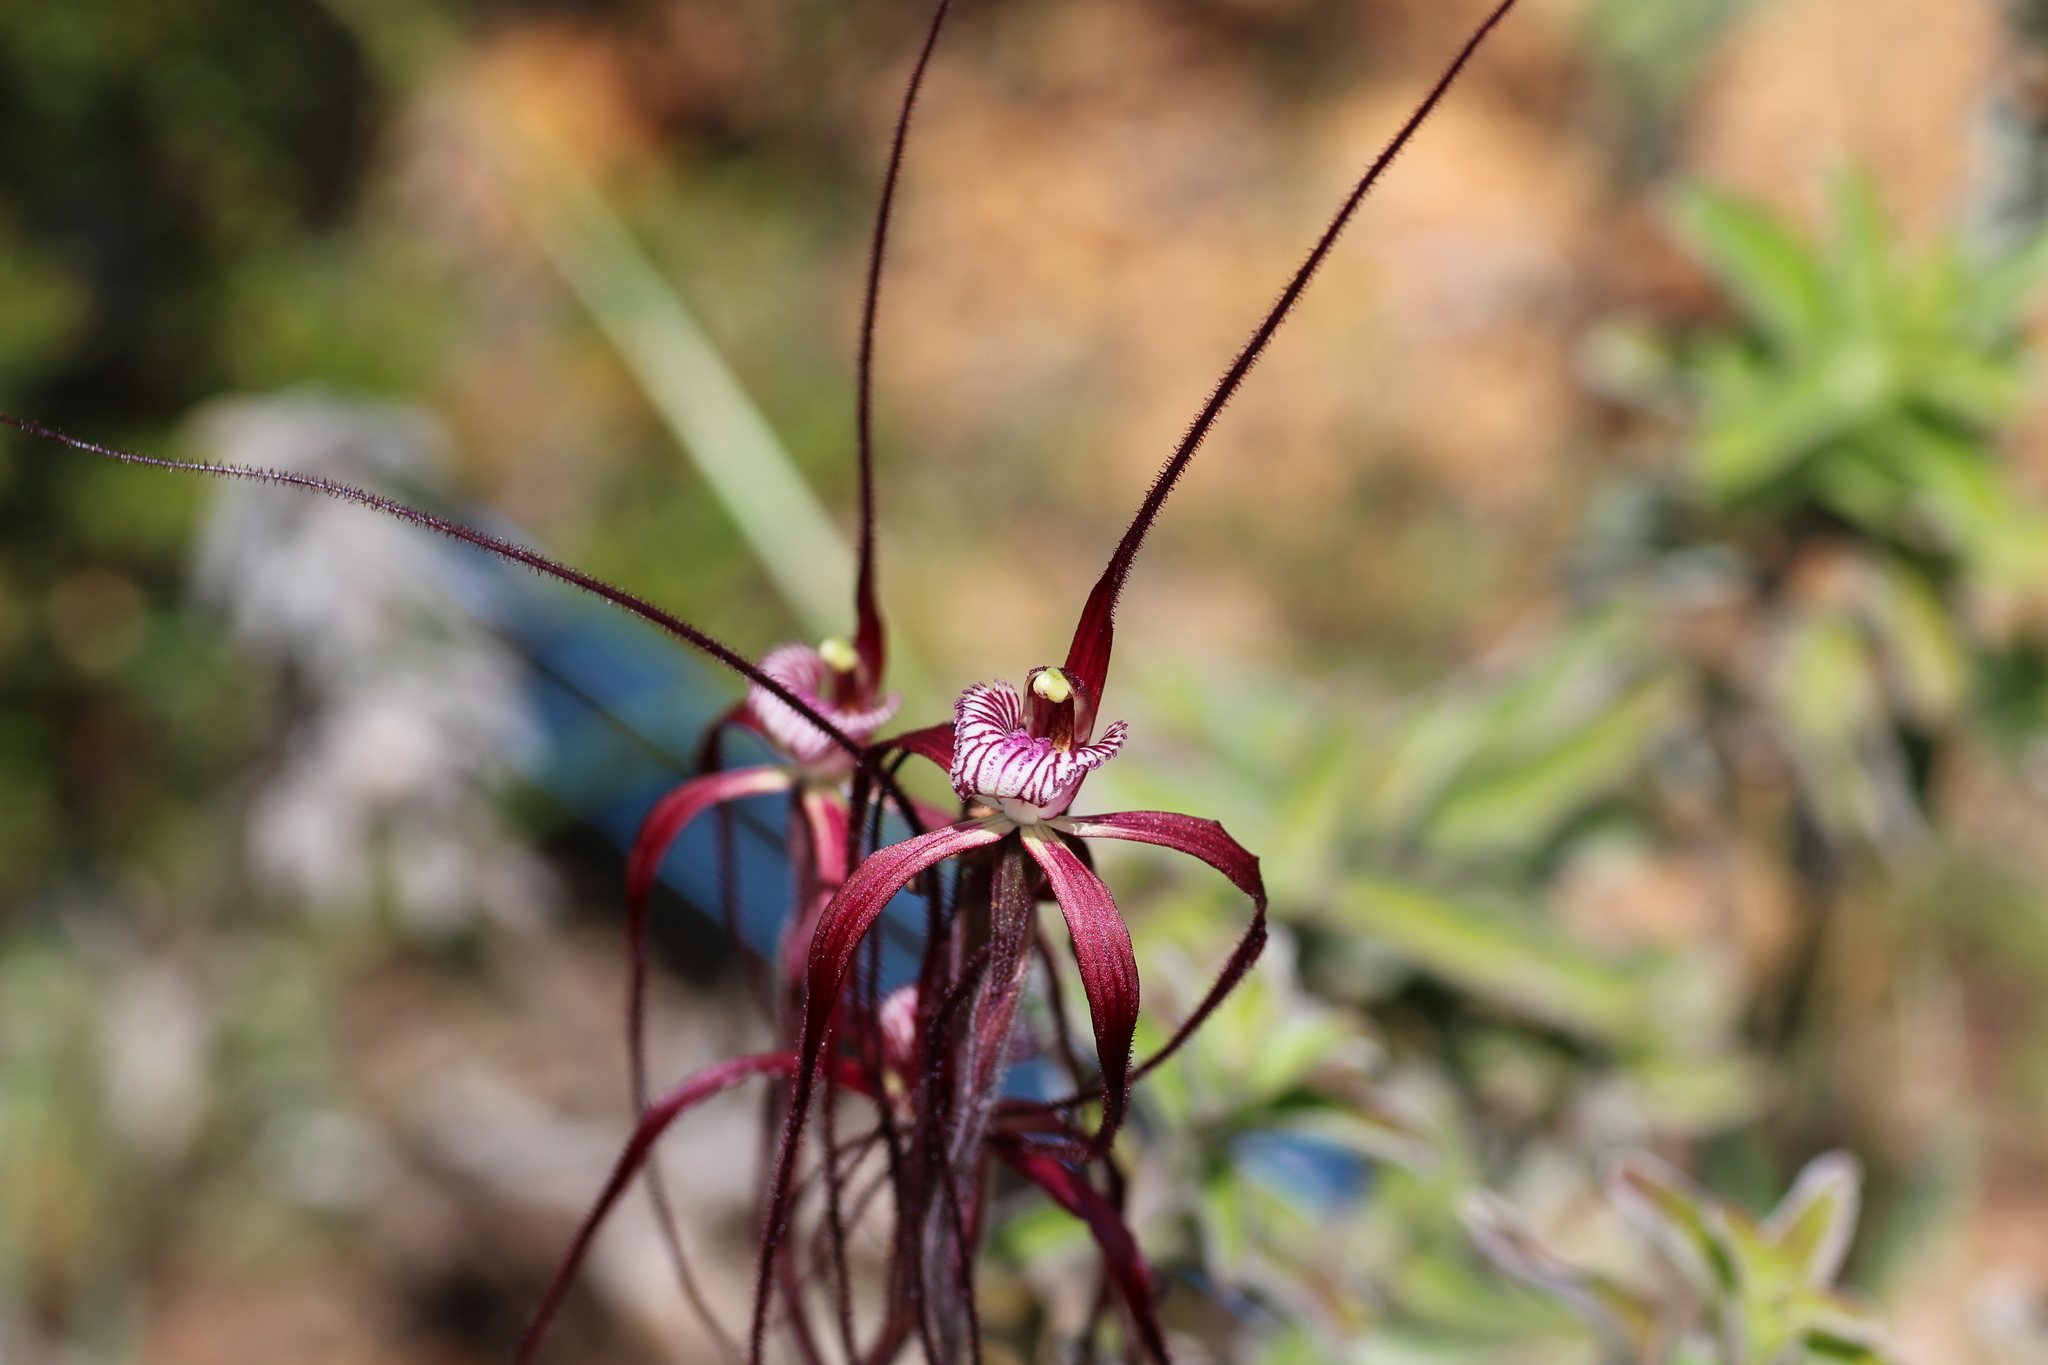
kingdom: Plantae
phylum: Tracheophyta
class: Liliopsida
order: Asparagales
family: Orchidaceae
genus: Caladenia
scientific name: Caladenia chapmanii
